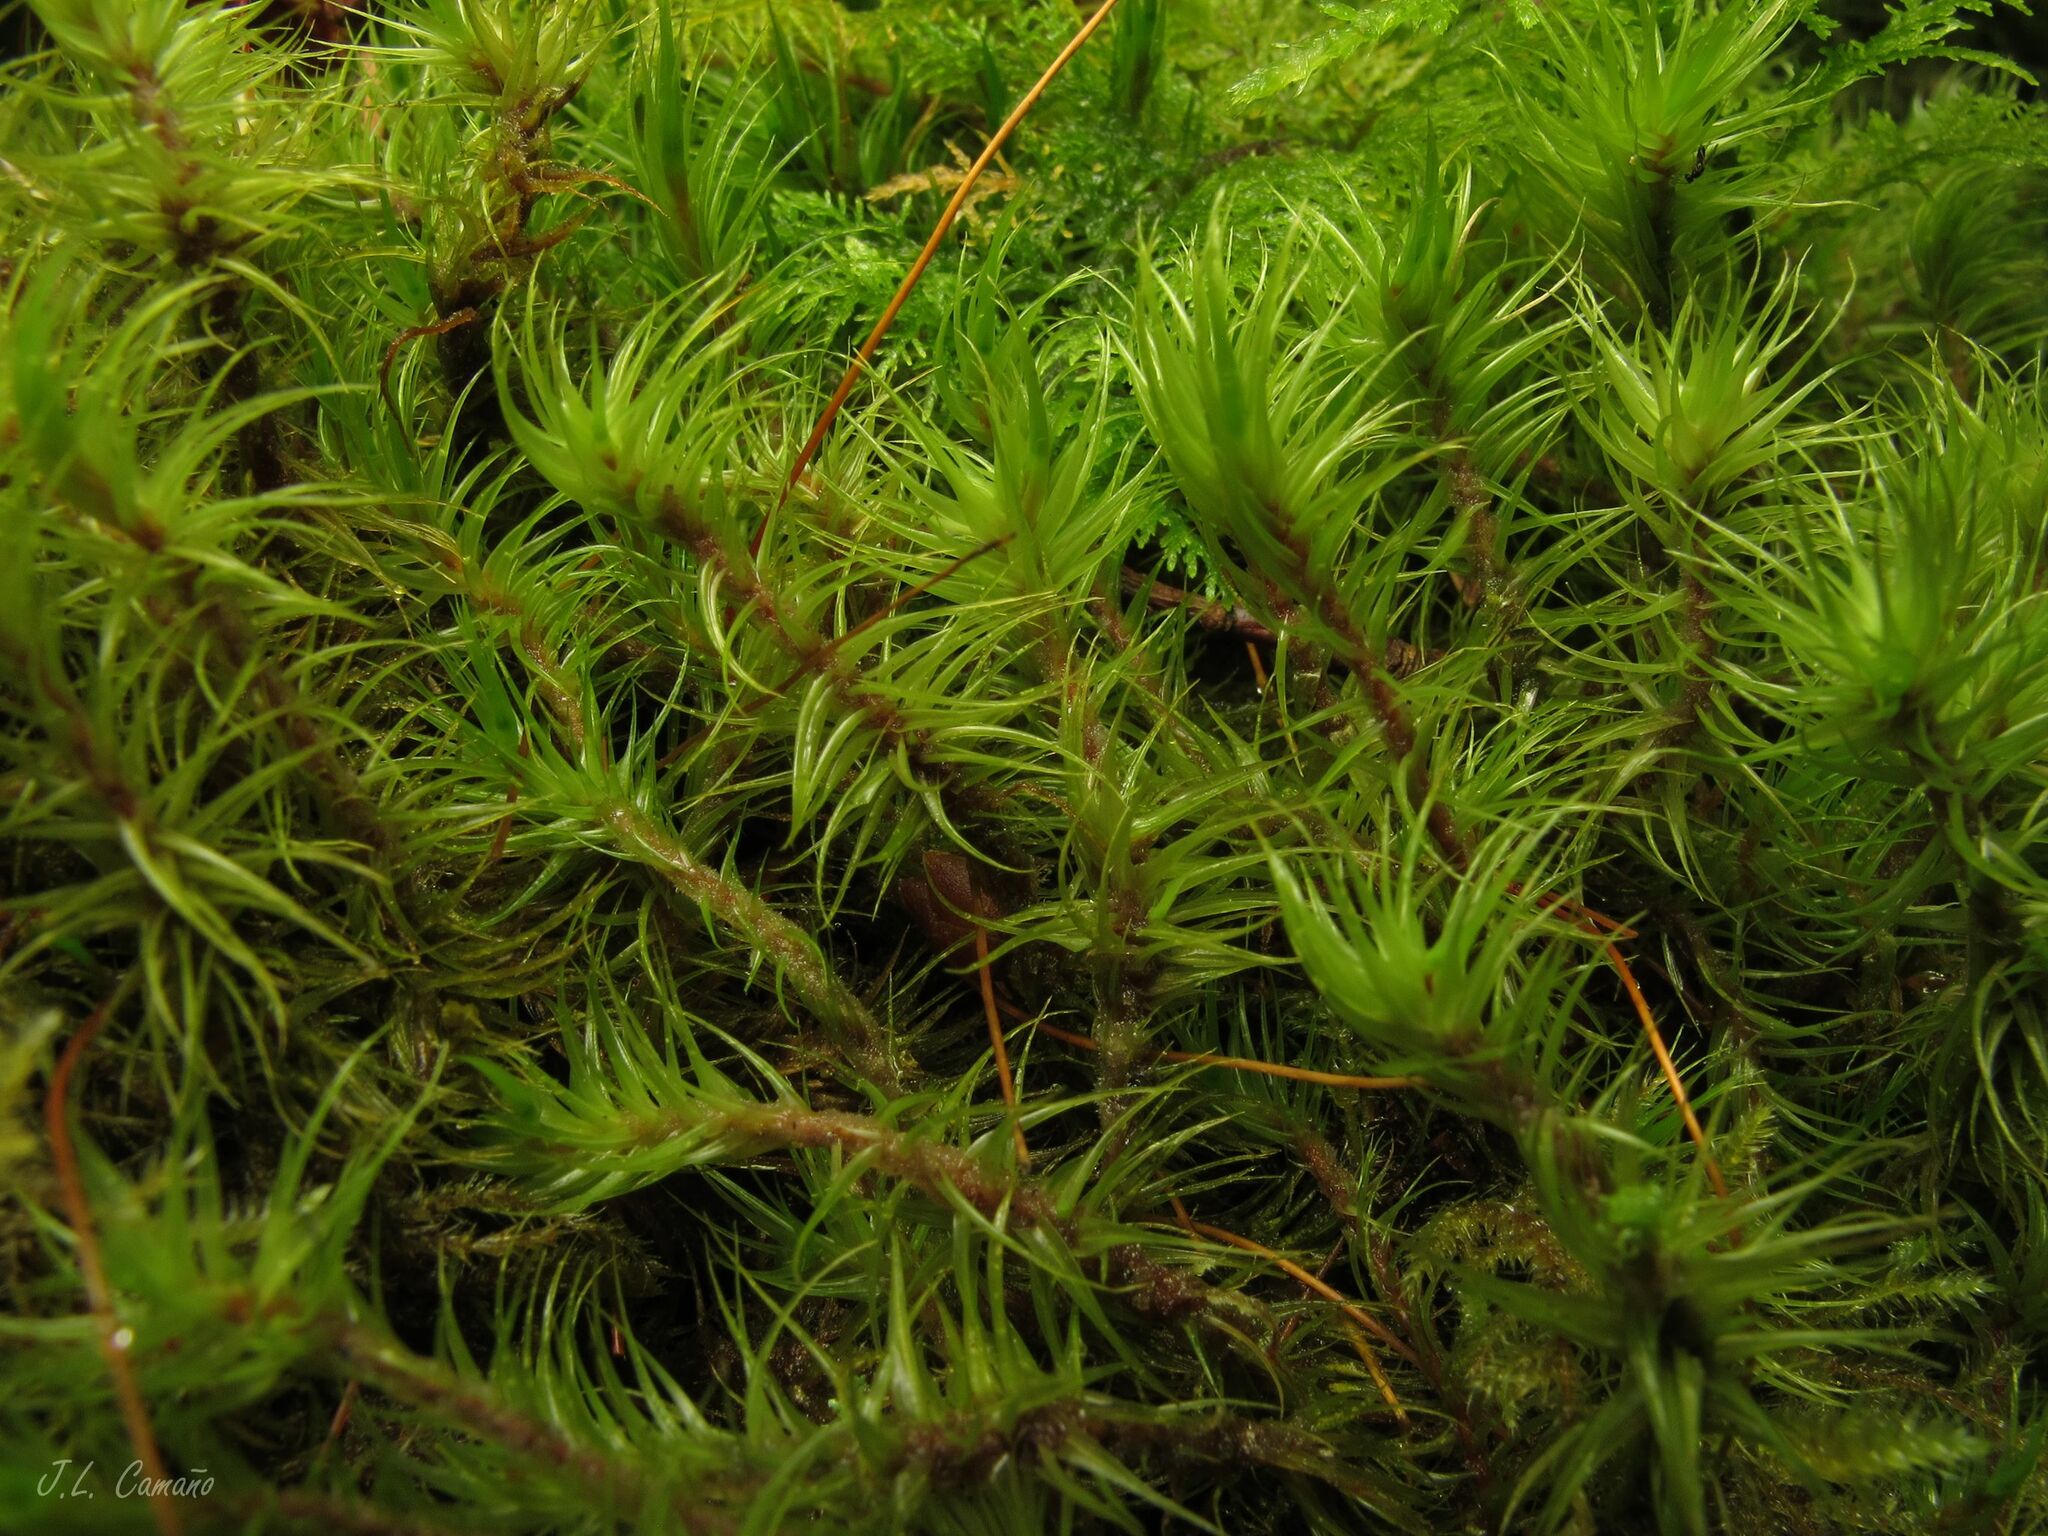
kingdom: Plantae
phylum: Bryophyta
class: Bryopsida
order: Dicranales
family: Dicranaceae
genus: Dicranum
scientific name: Dicranum scoparium
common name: Broom fork-moss
